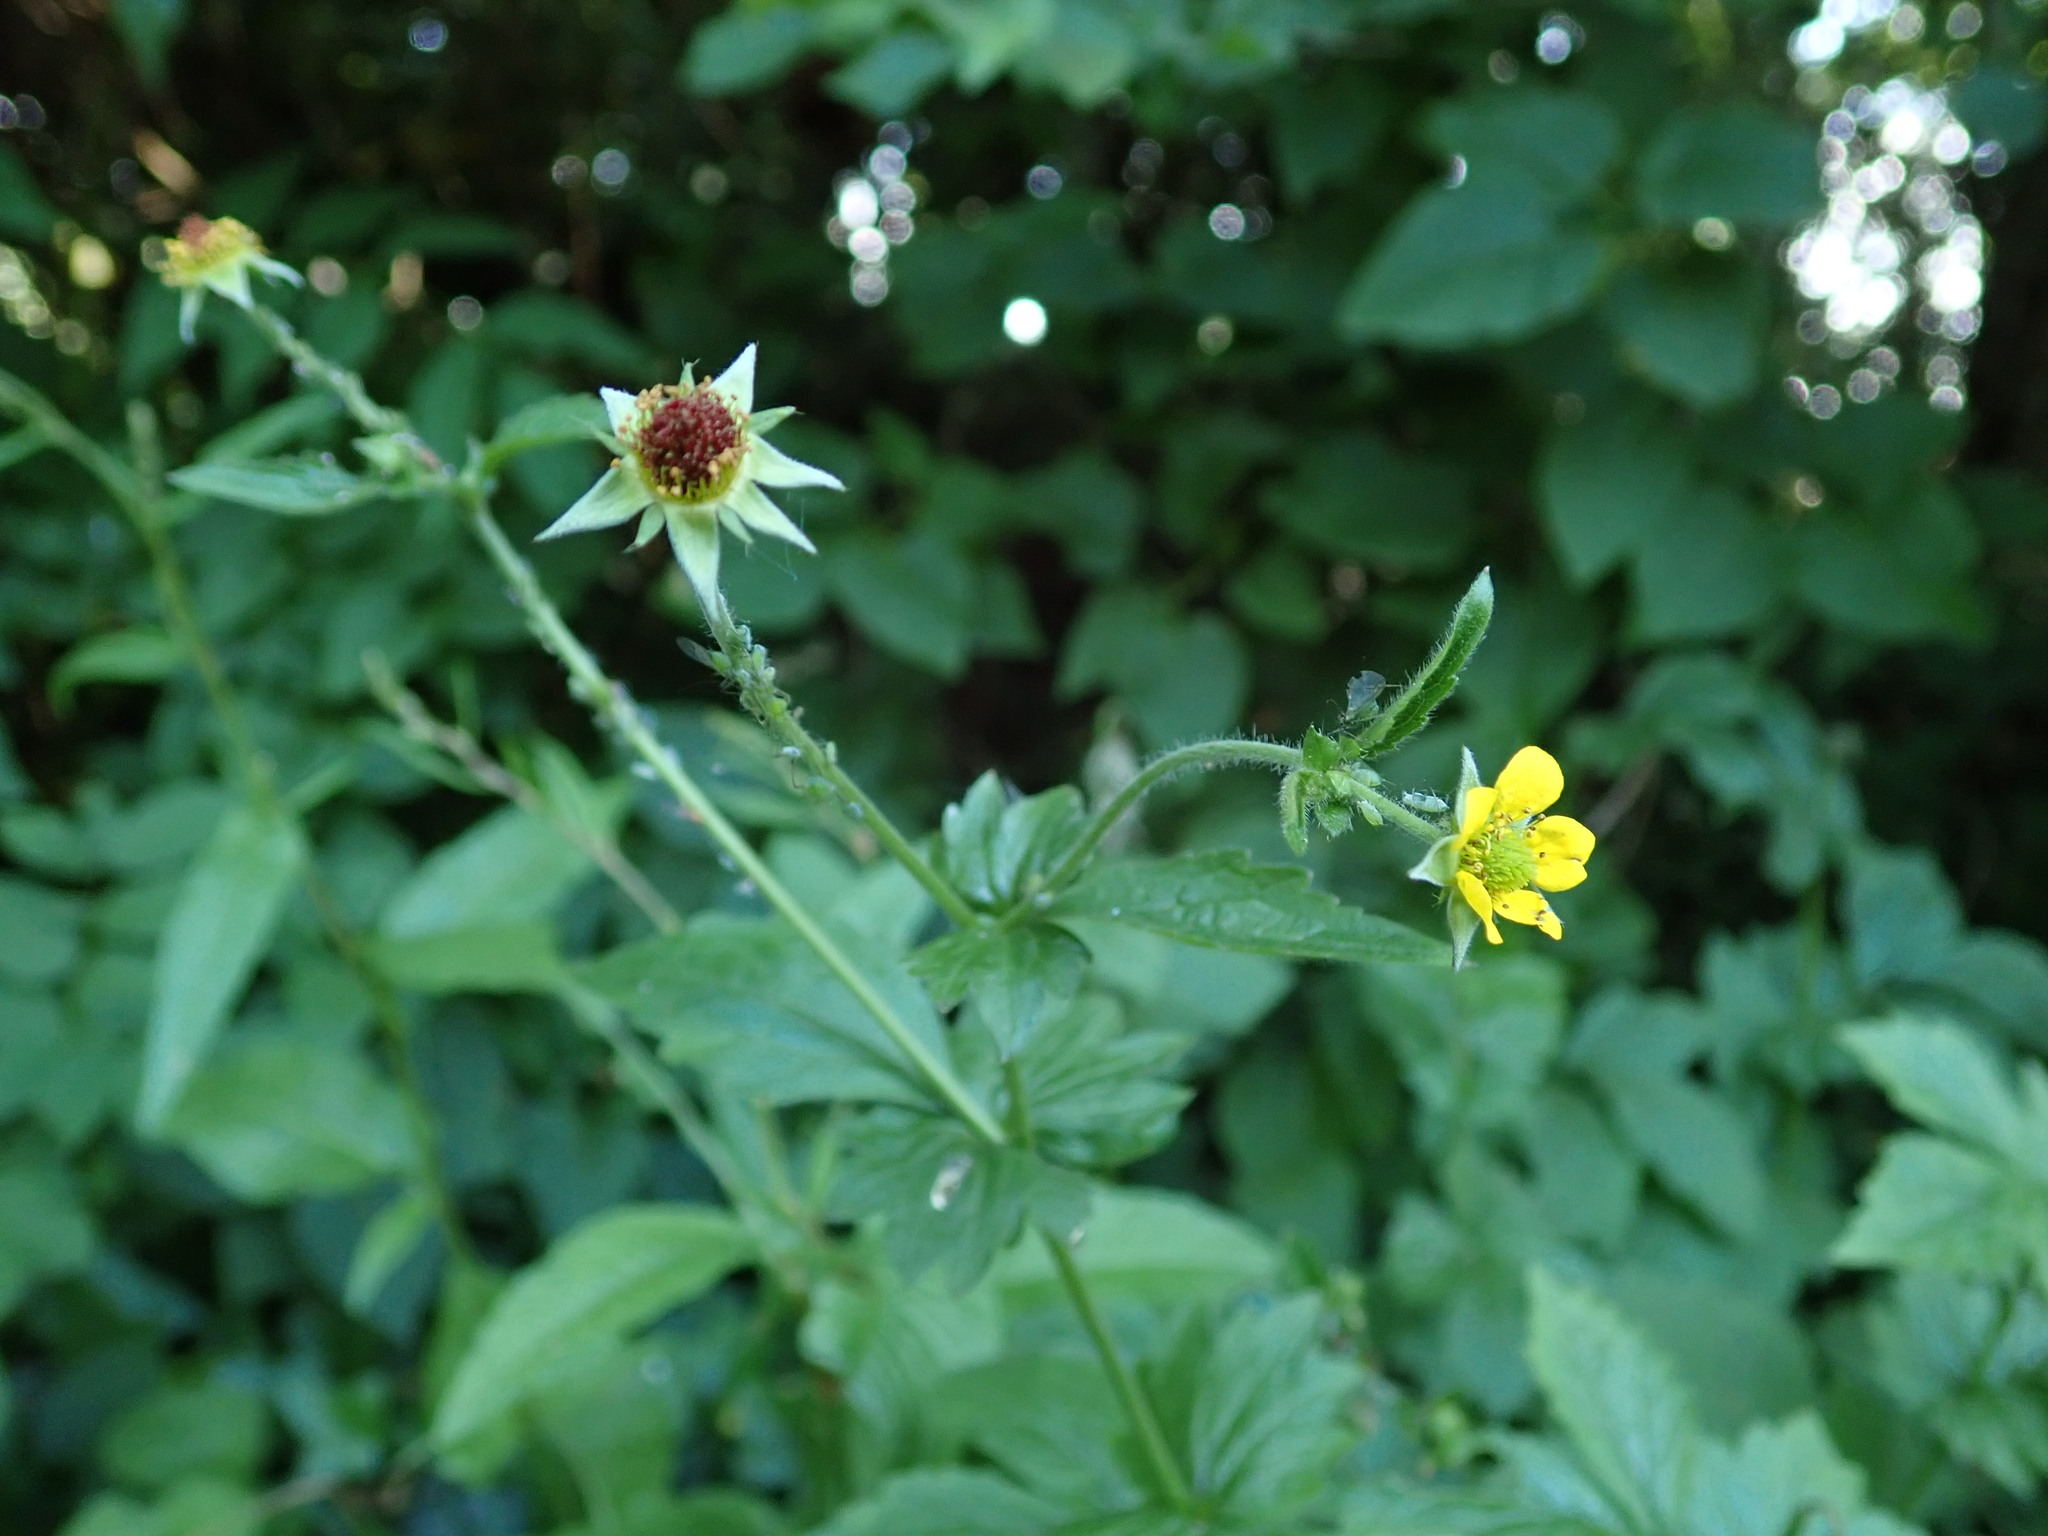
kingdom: Plantae
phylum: Tracheophyta
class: Magnoliopsida
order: Rosales
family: Rosaceae
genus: Geum
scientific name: Geum urbanum
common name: Wood avens
